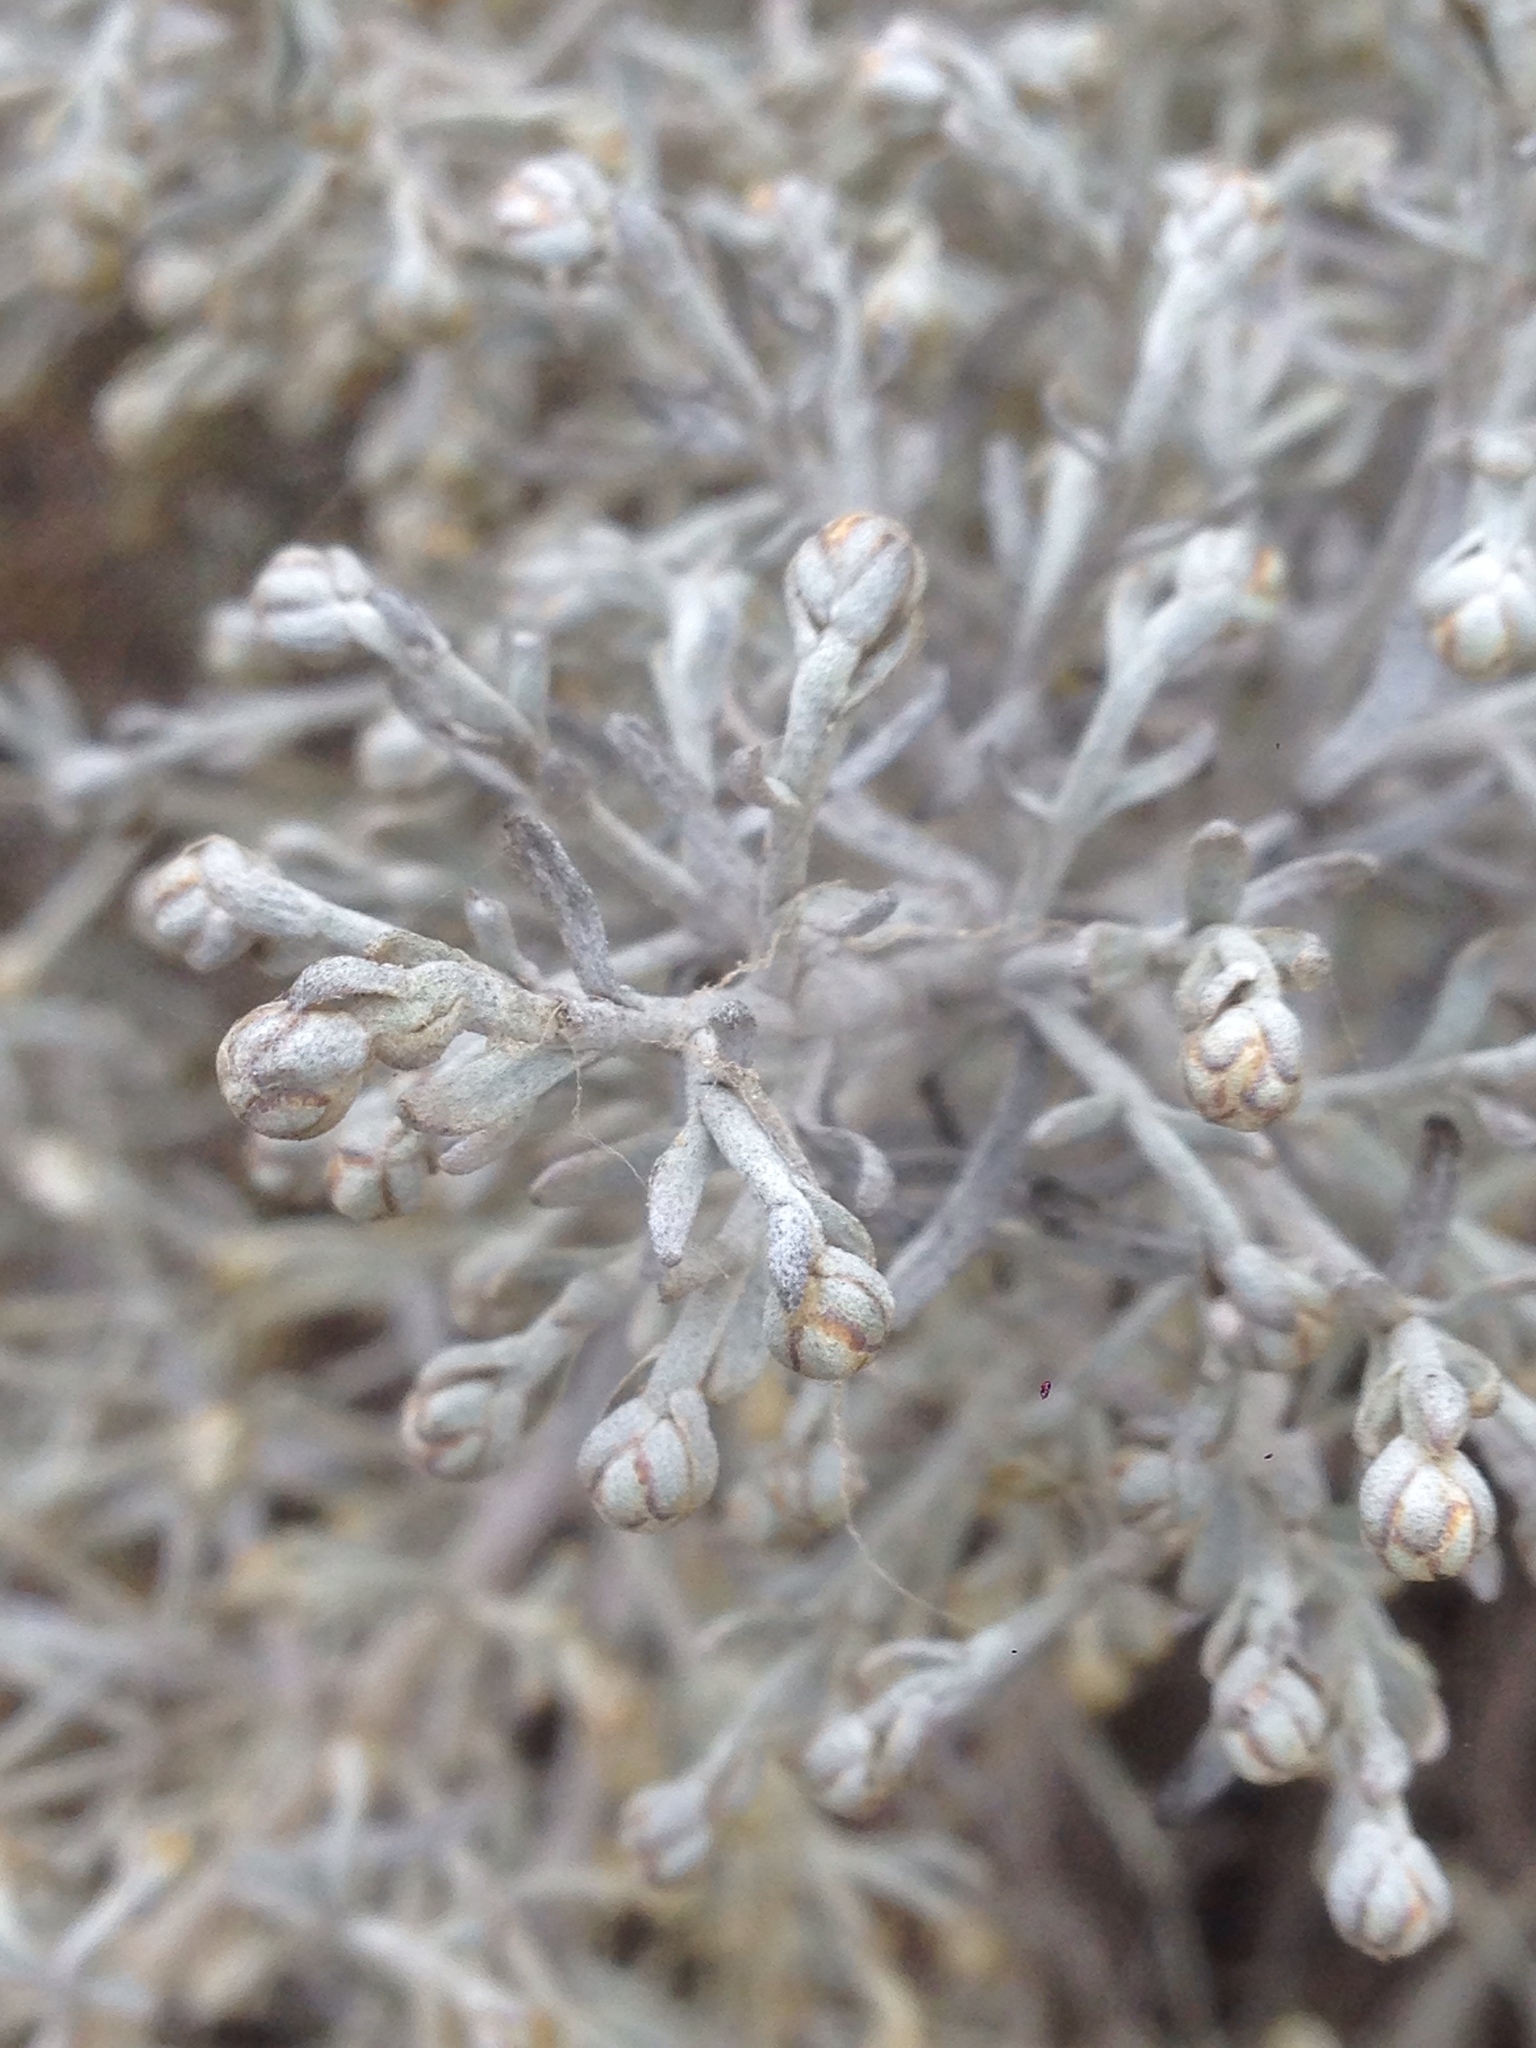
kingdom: Plantae
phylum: Tracheophyta
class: Magnoliopsida
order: Asterales
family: Asteraceae
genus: Artemisia
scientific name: Artemisia nesiotica
